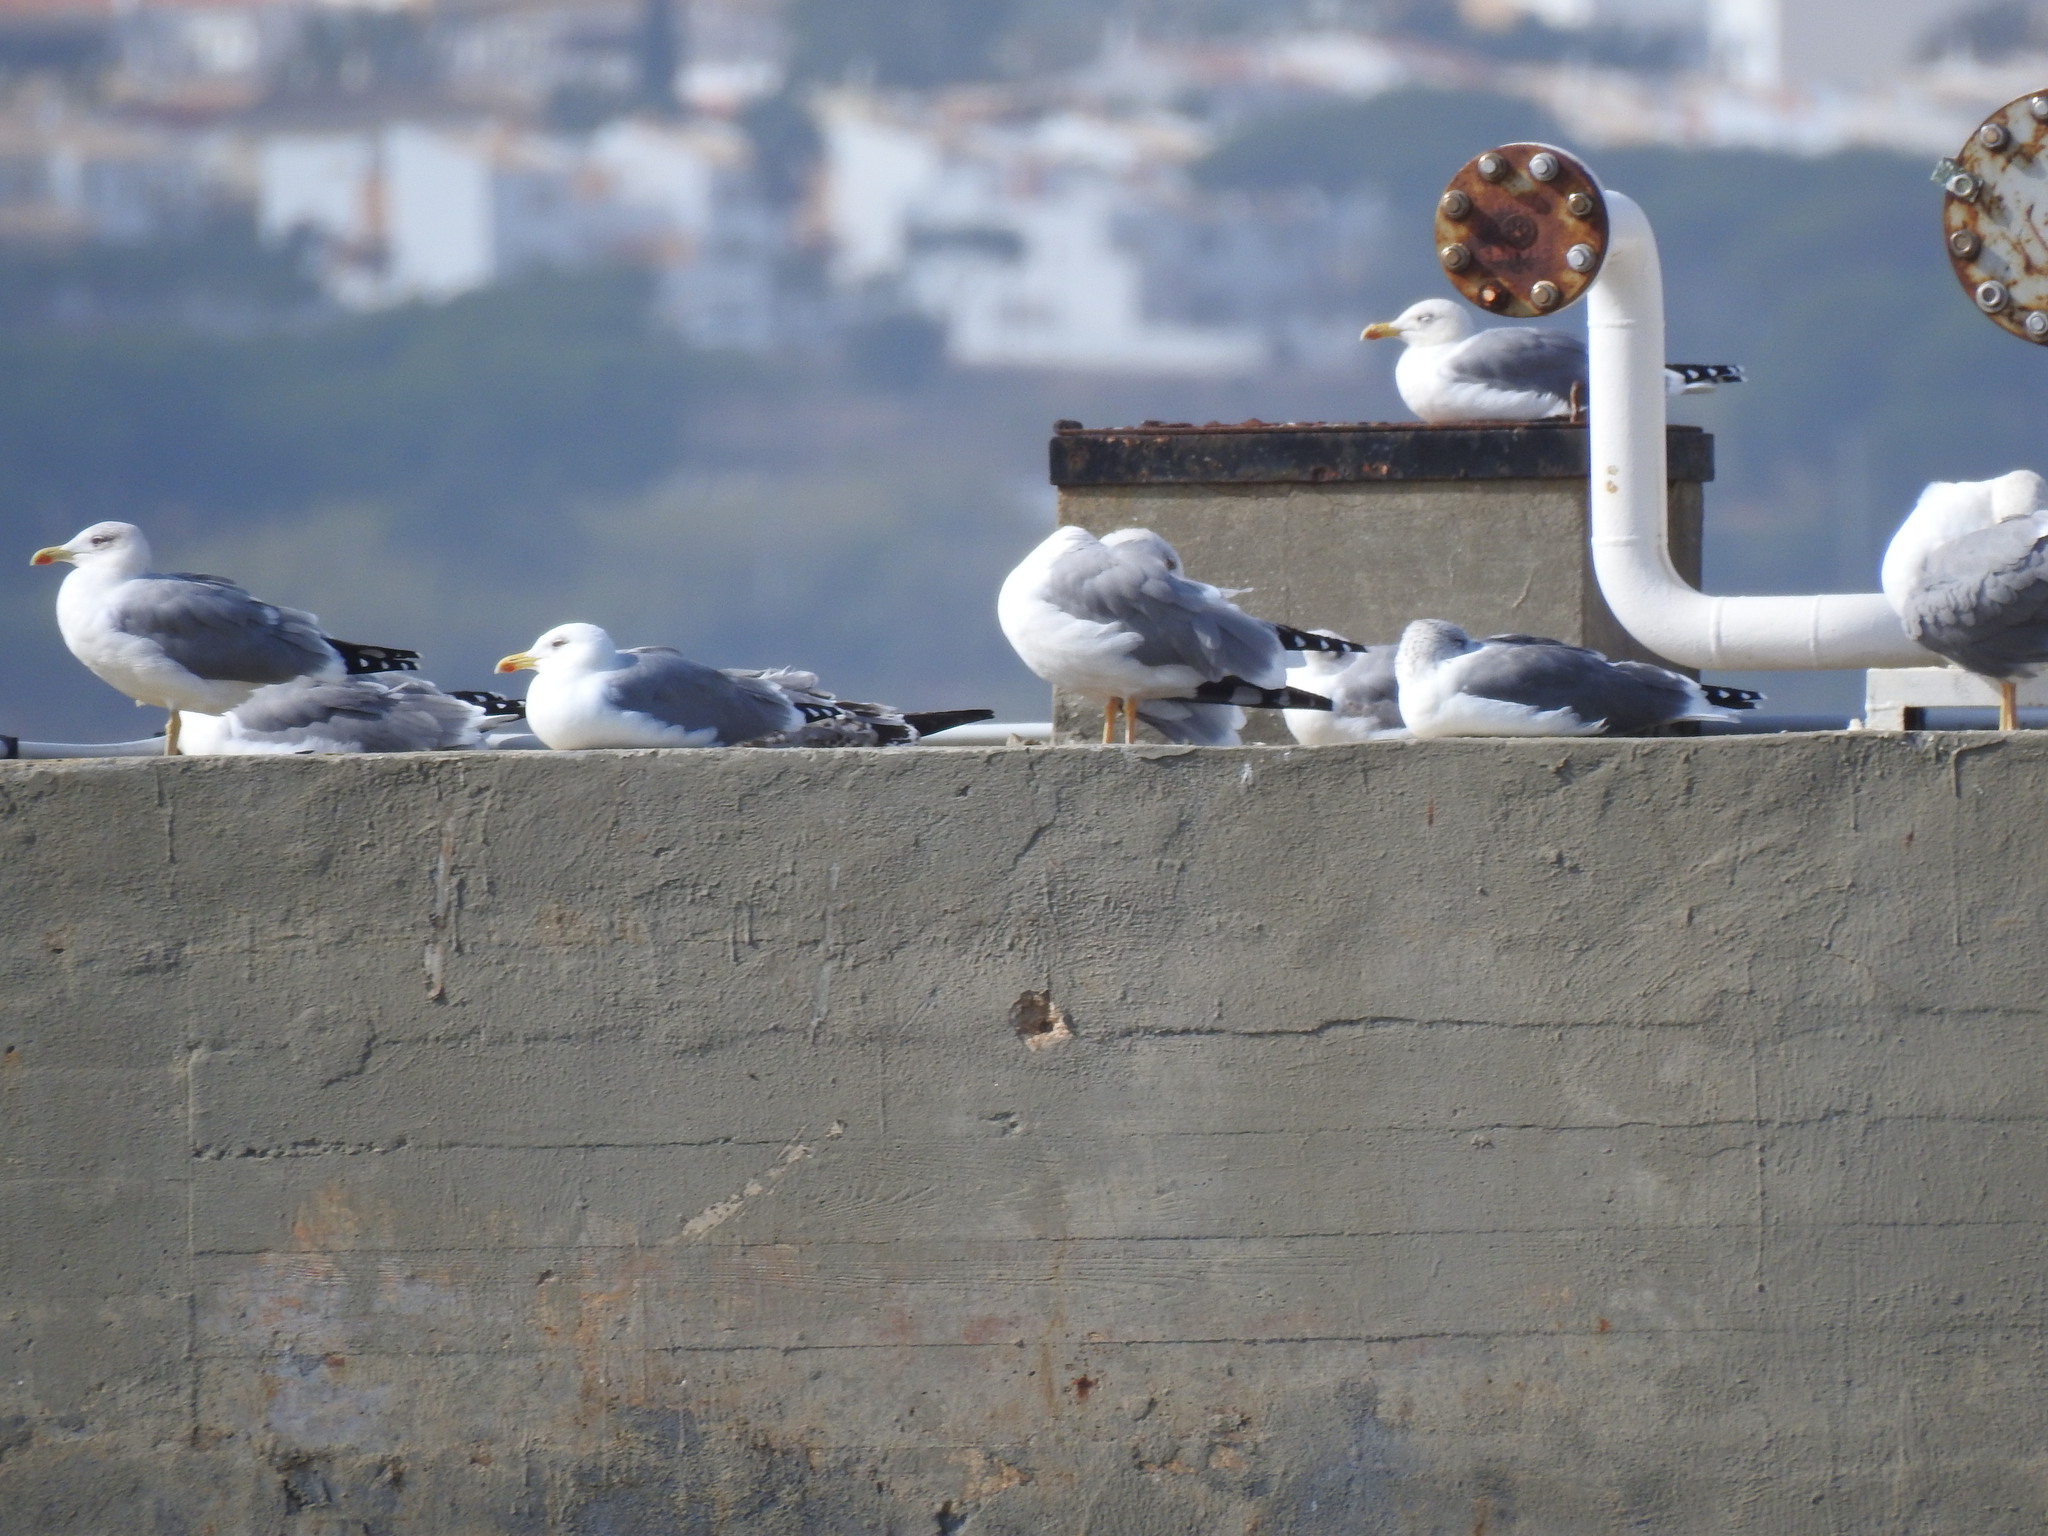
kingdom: Animalia
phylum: Chordata
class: Aves
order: Charadriiformes
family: Laridae
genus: Larus
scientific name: Larus michahellis
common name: Yellow-legged gull
